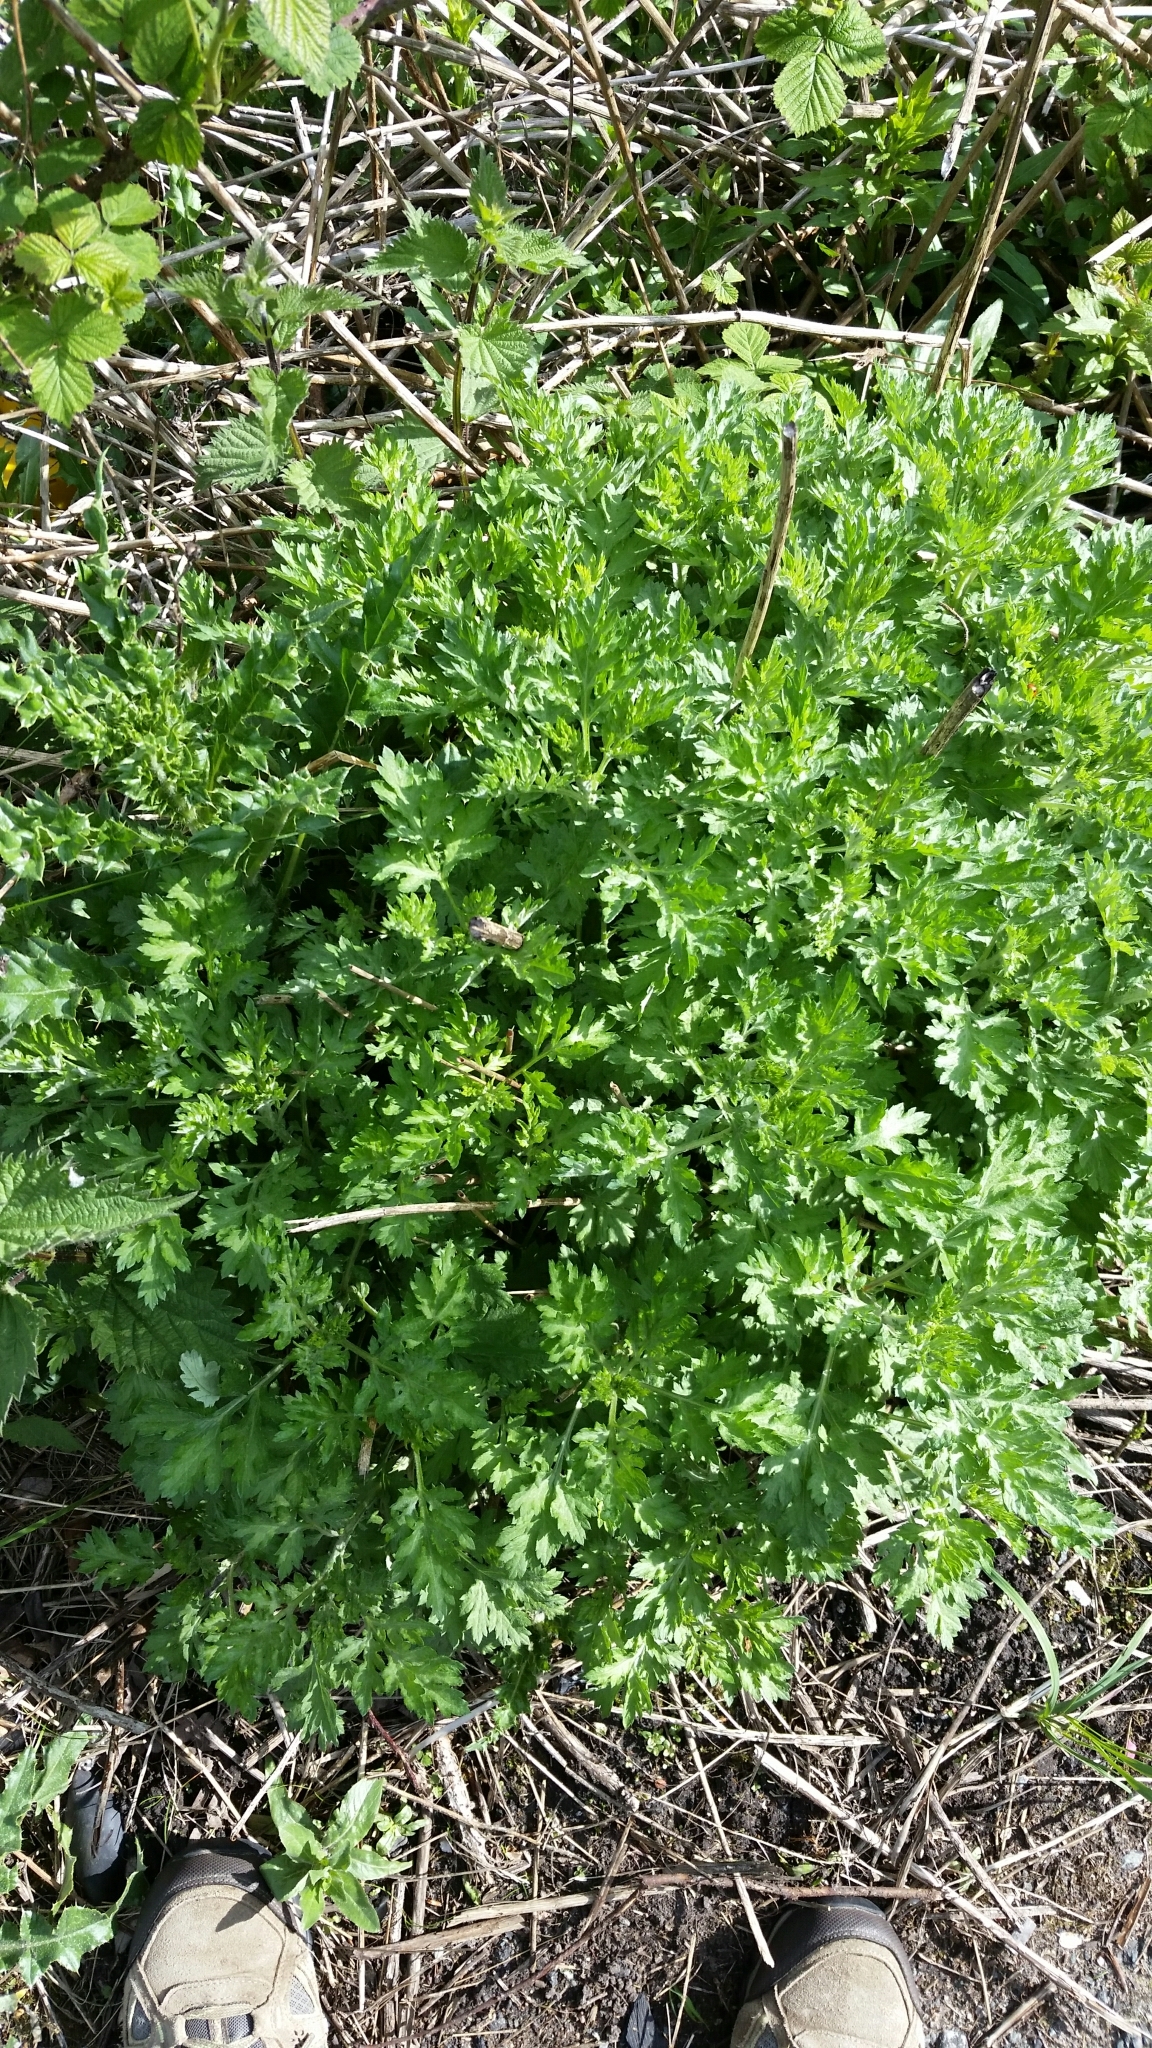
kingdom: Plantae
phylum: Tracheophyta
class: Magnoliopsida
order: Asterales
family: Asteraceae
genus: Artemisia
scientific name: Artemisia vulgaris
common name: Mugwort
